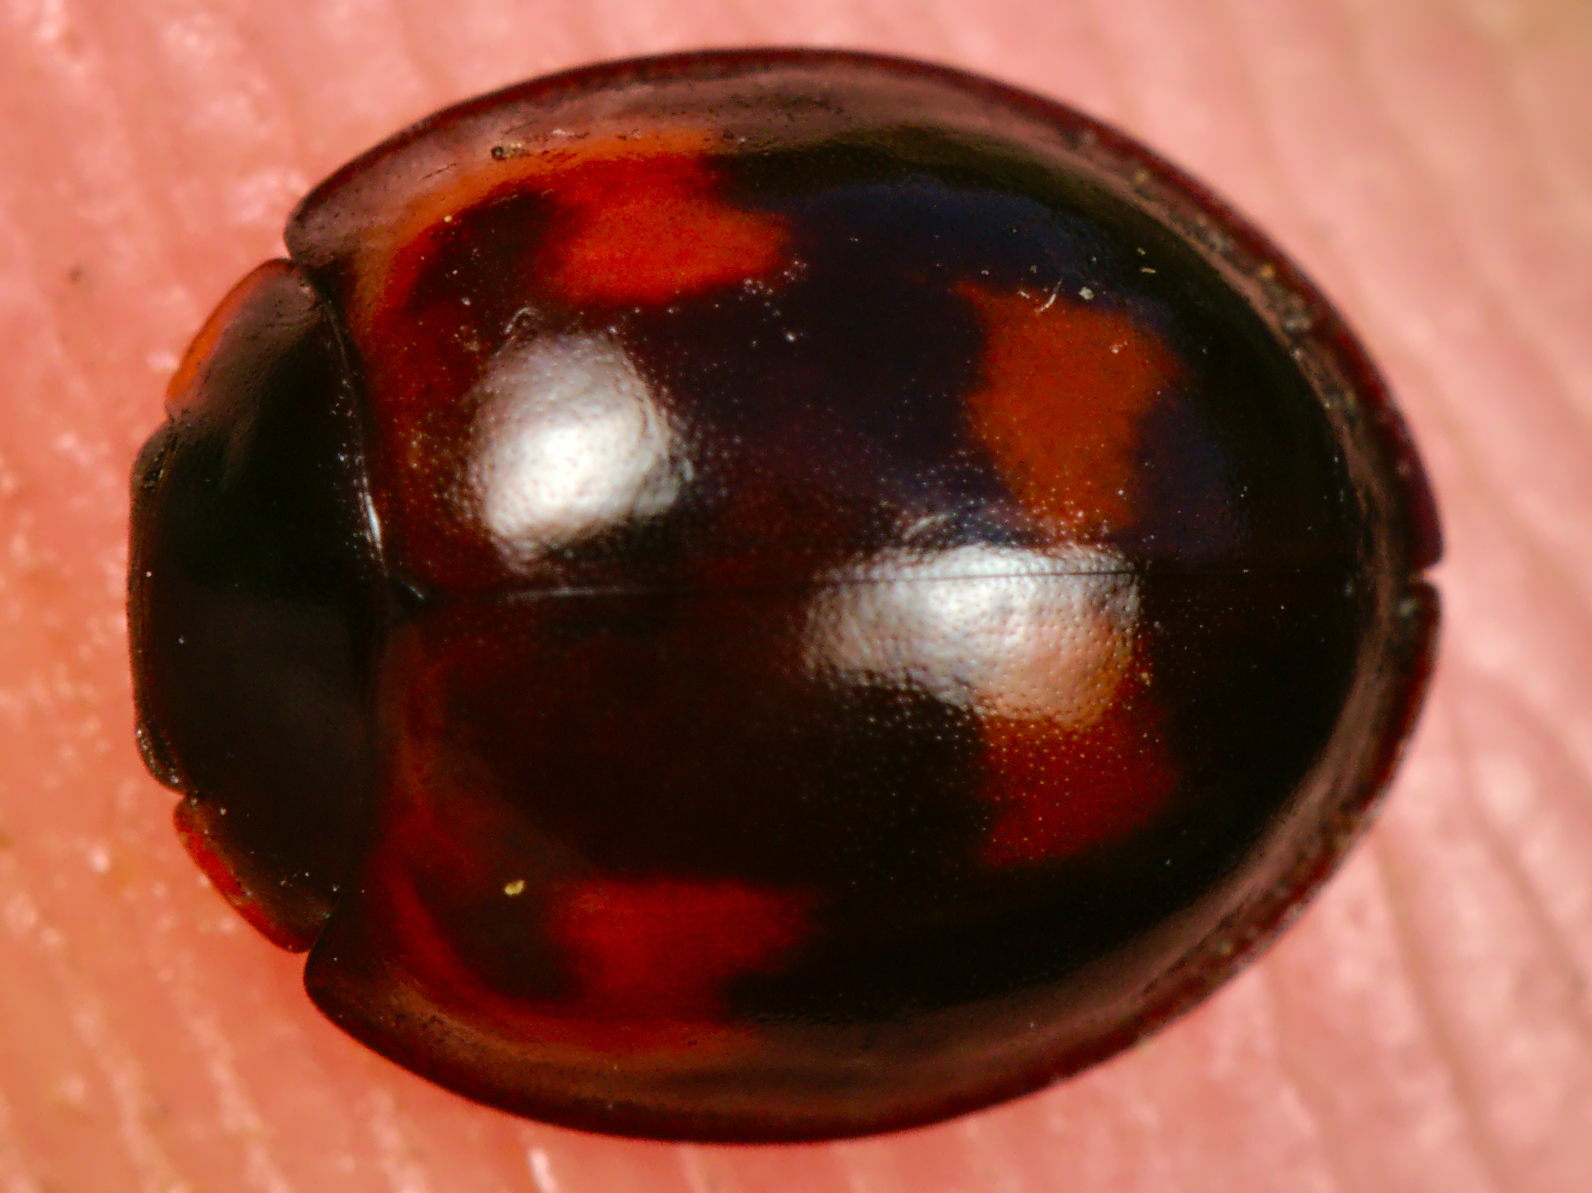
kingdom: Animalia
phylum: Arthropoda
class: Insecta
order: Coleoptera
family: Coccinellidae
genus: Brumus
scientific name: Brumus quadripustulatus
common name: Ladybird beetle
